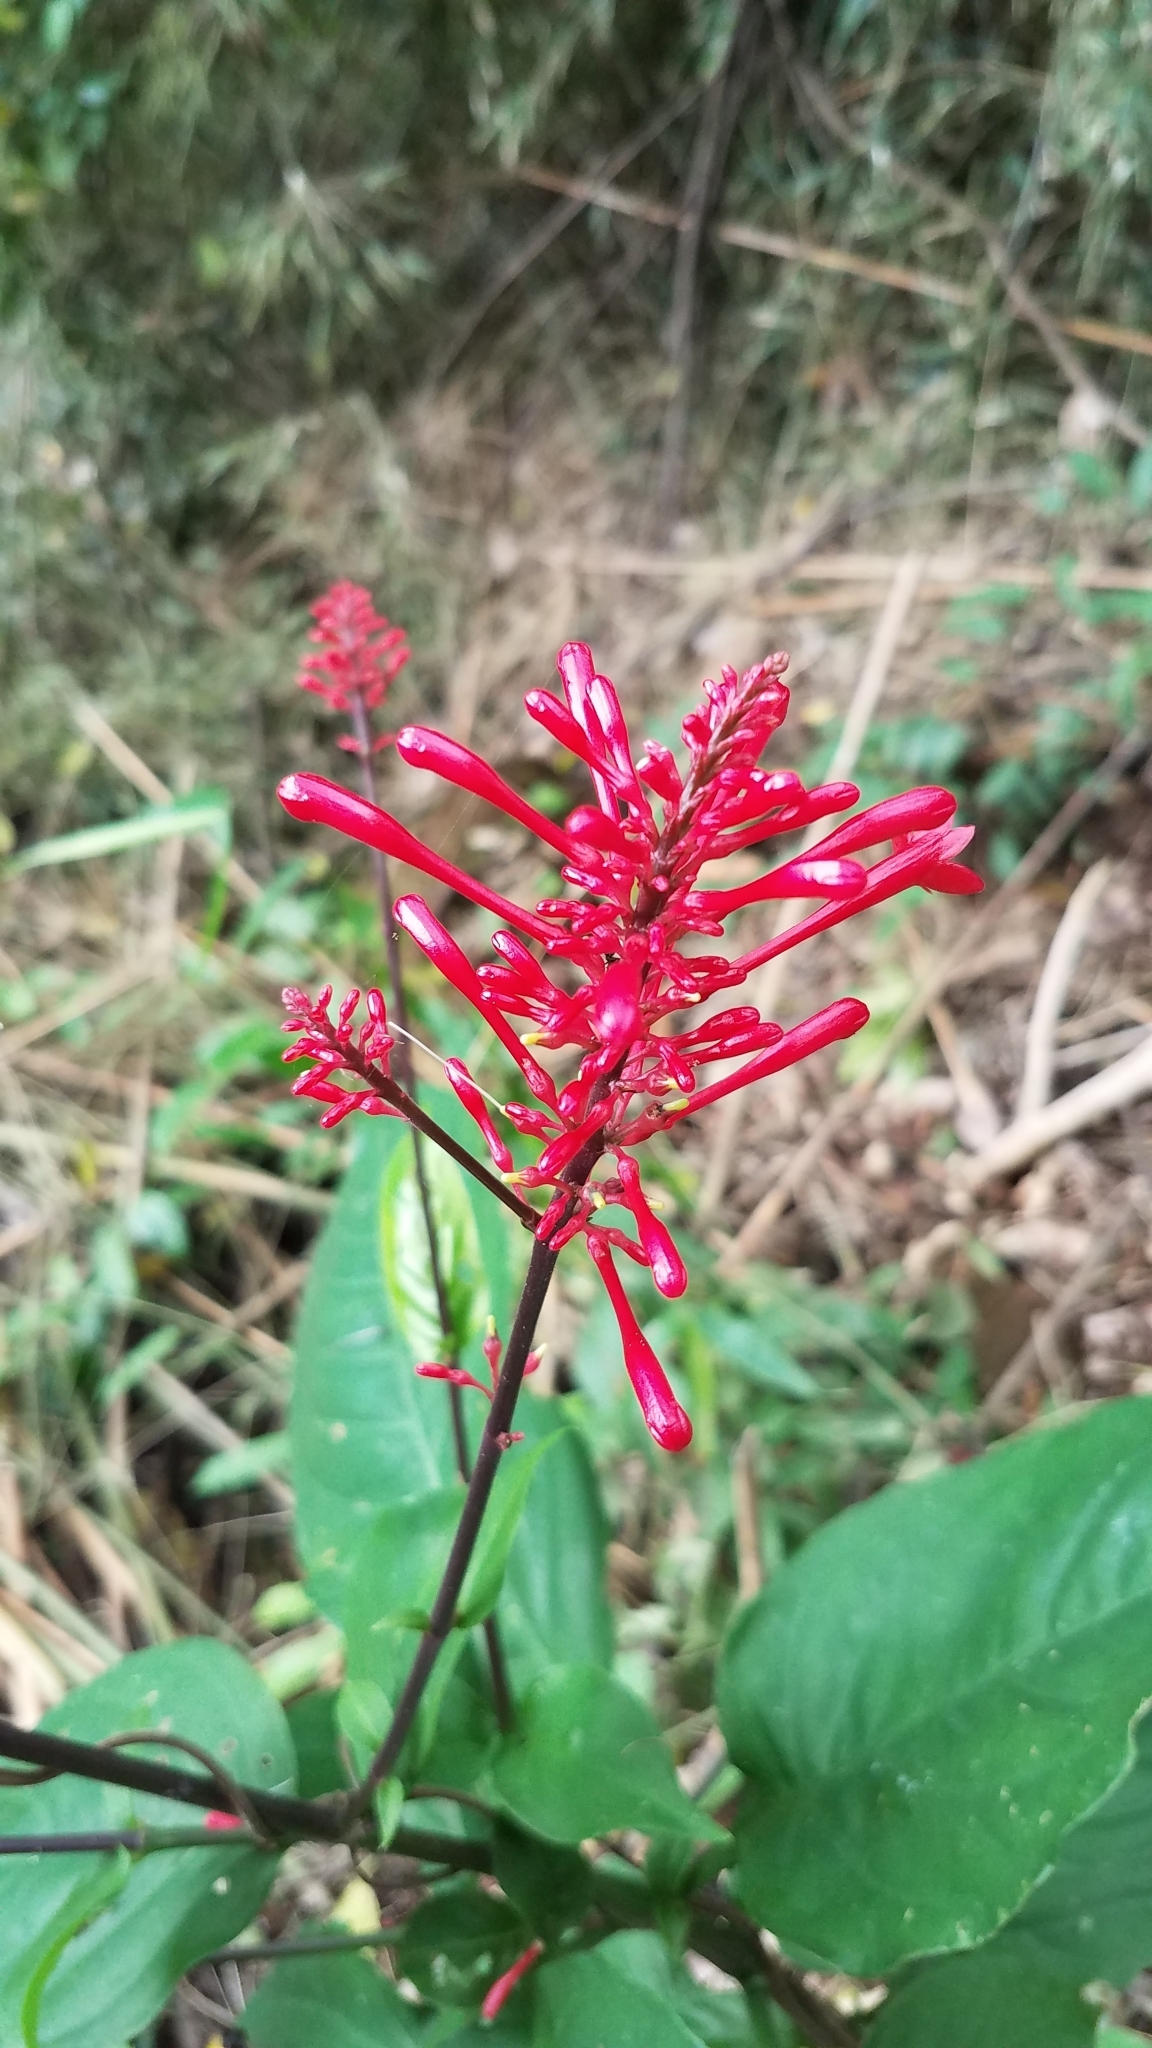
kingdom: Plantae
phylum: Tracheophyta
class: Magnoliopsida
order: Lamiales
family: Acanthaceae
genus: Odontonema
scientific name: Odontonema tubaeforme
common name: Firespike
